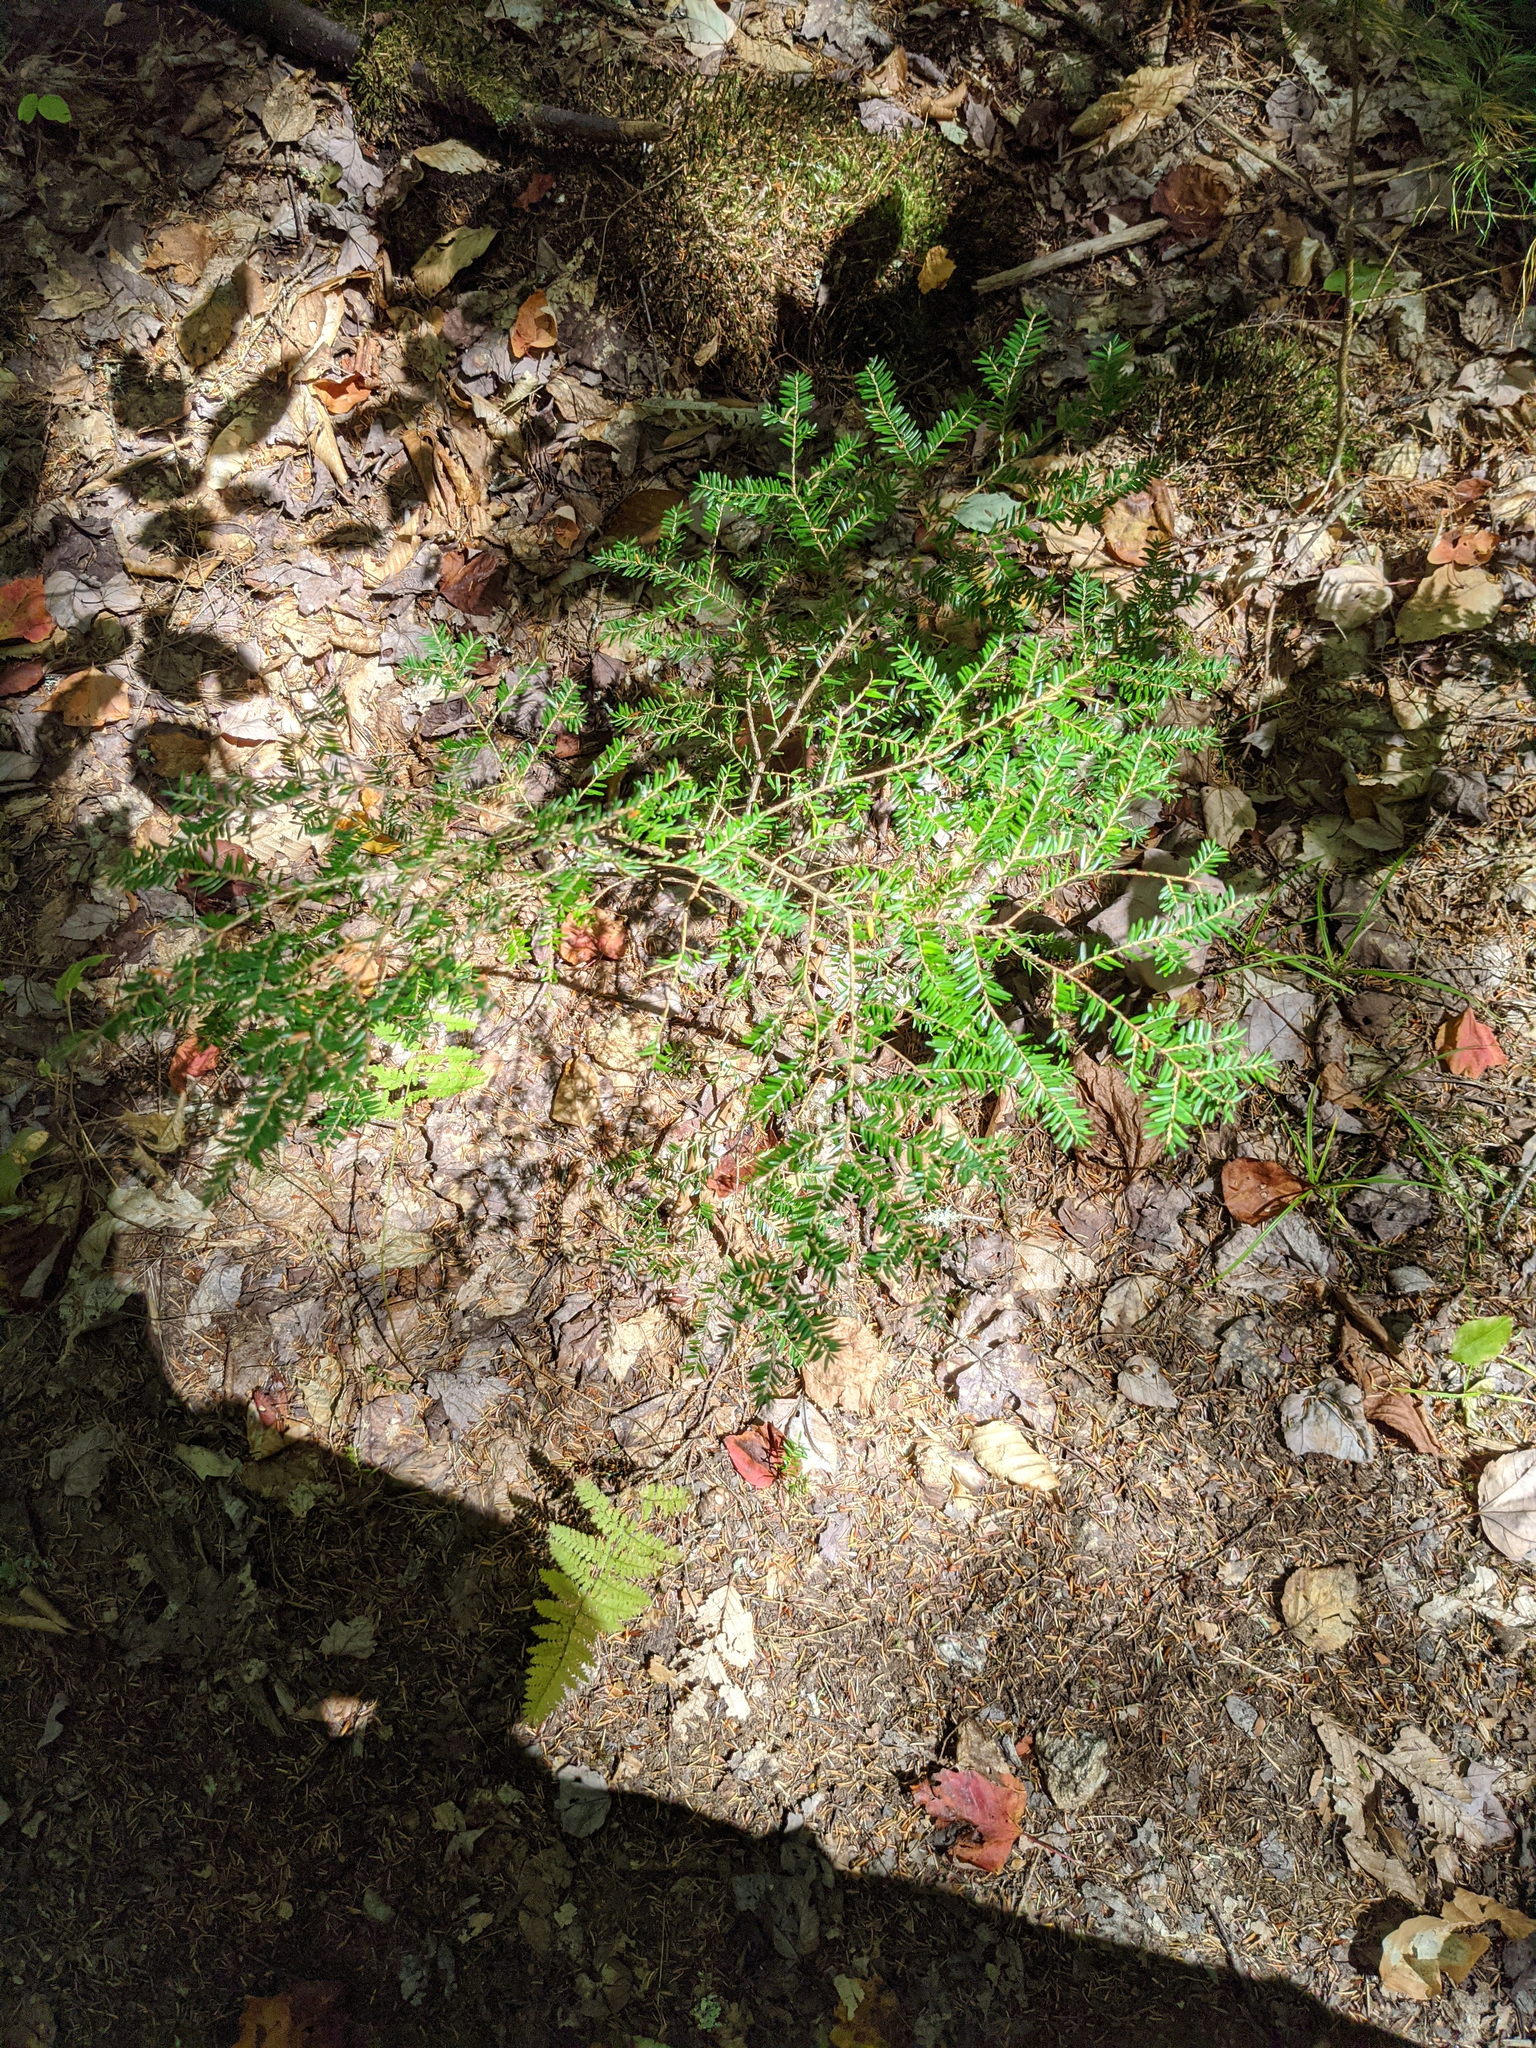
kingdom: Plantae
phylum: Tracheophyta
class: Pinopsida
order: Pinales
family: Pinaceae
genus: Tsuga
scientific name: Tsuga canadensis
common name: Eastern hemlock
